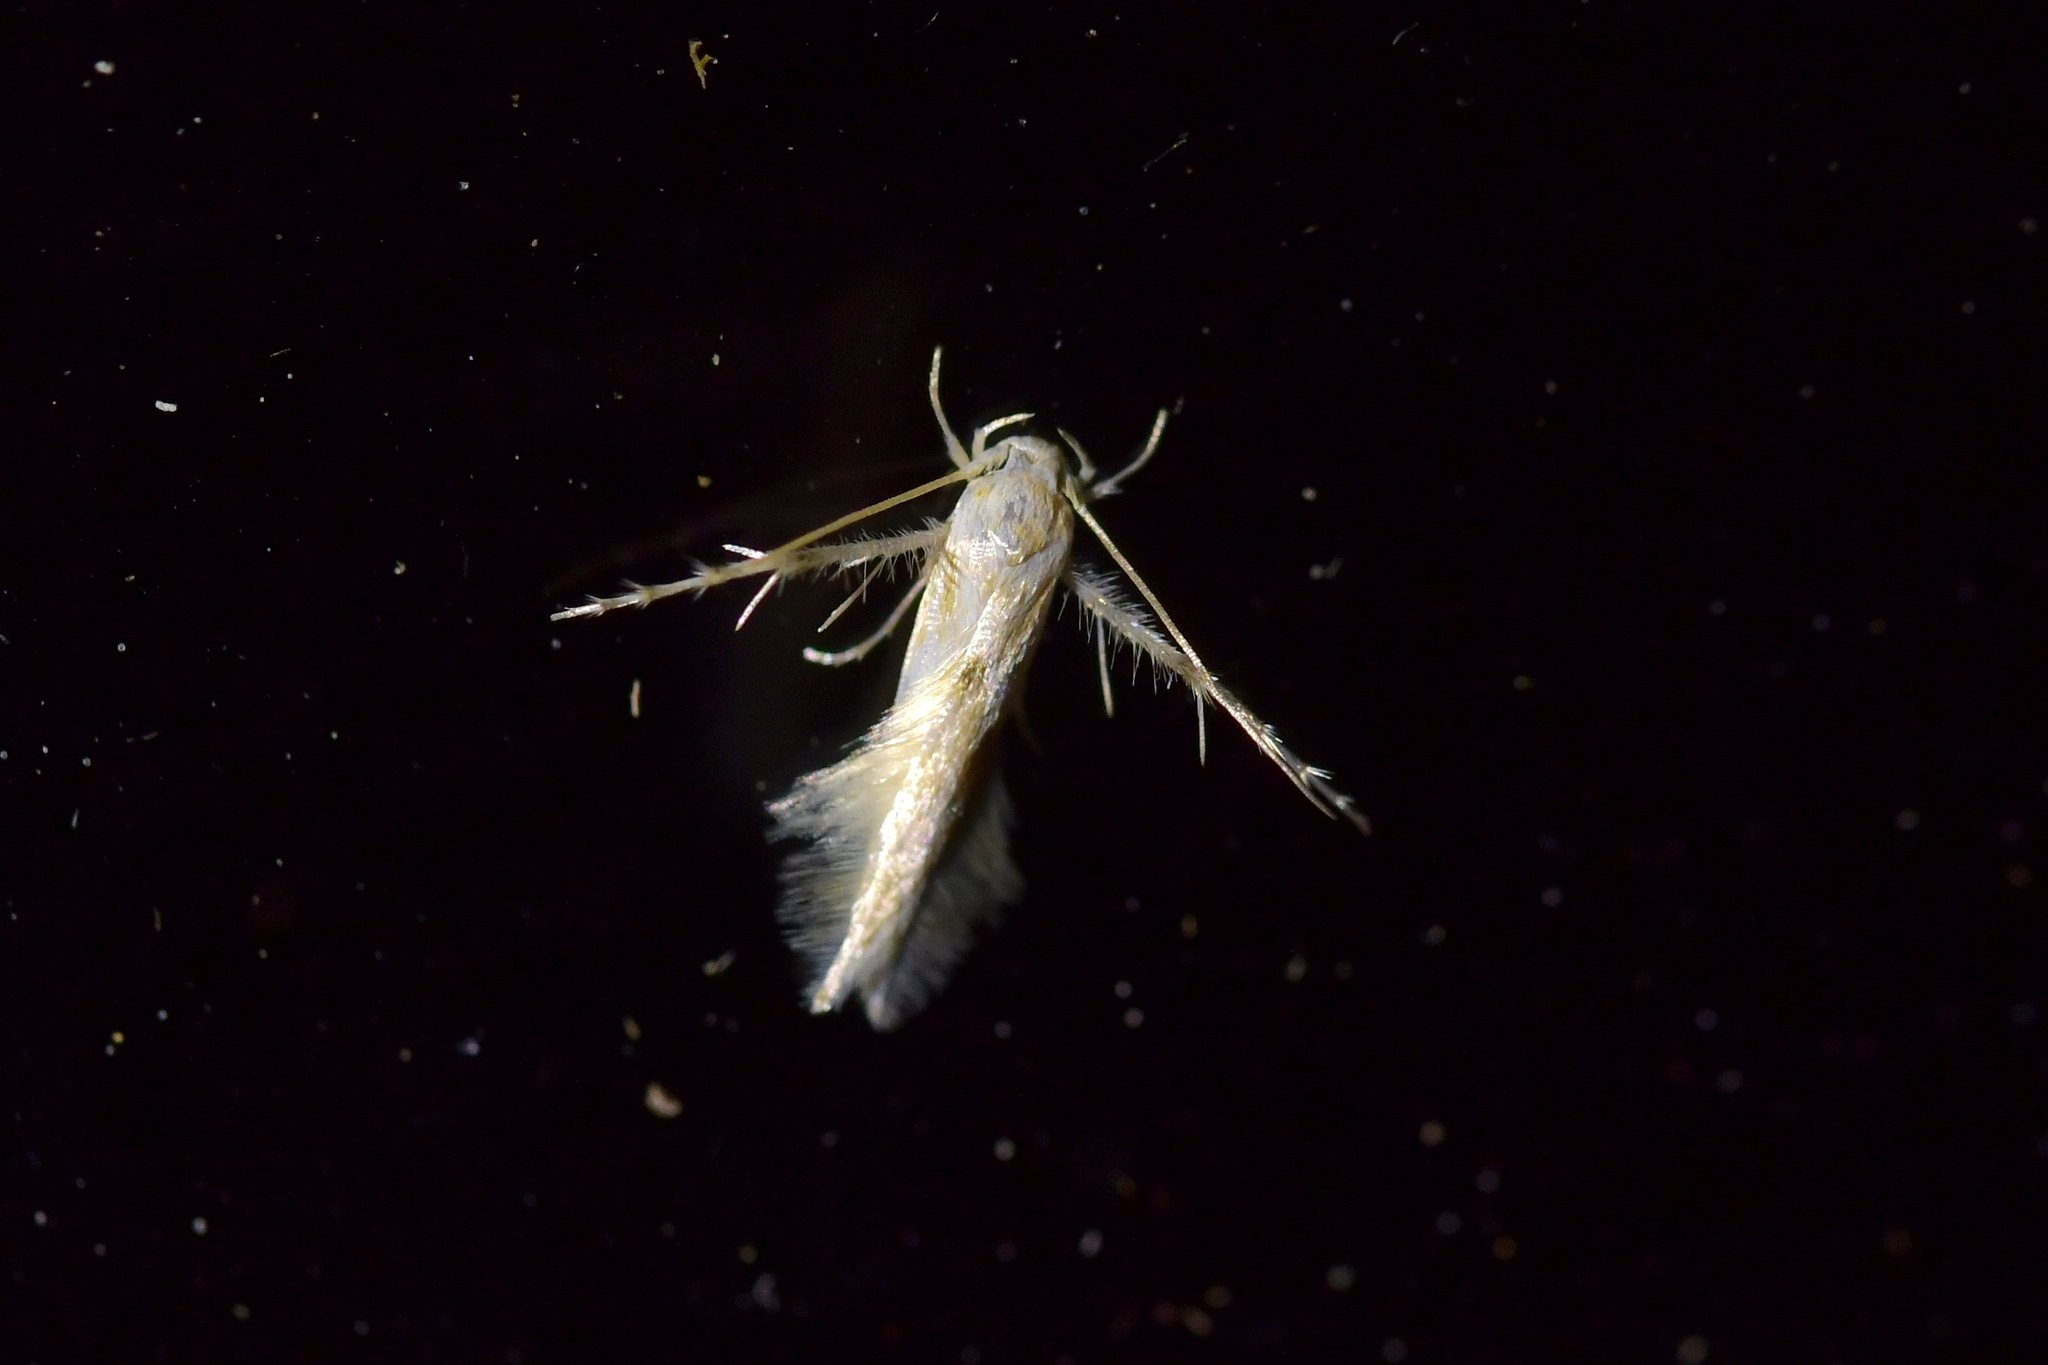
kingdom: Animalia
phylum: Arthropoda
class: Insecta
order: Lepidoptera
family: Stathmopodidae
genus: Calicotis
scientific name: Calicotis crucifera
